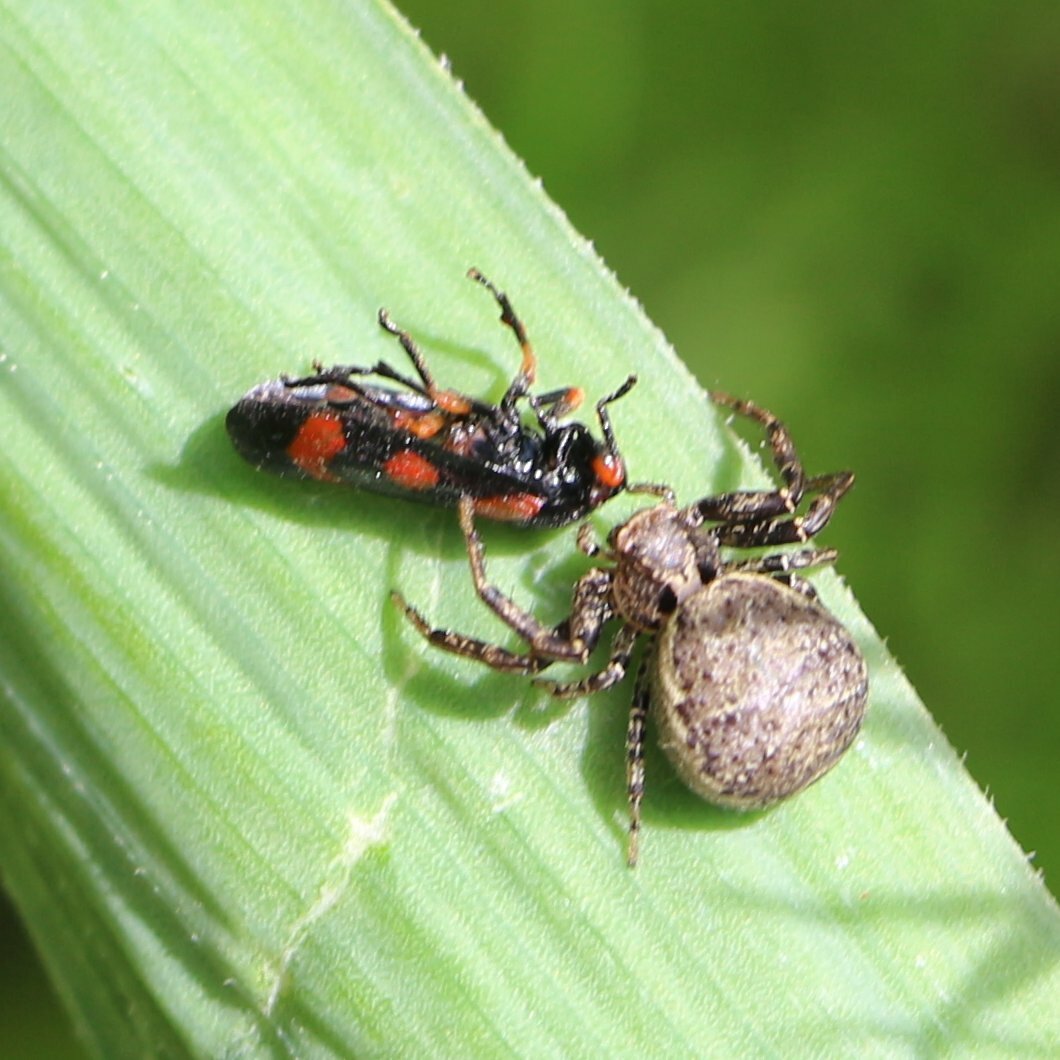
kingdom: Animalia
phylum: Arthropoda
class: Insecta
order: Hemiptera
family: Cercopidae
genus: Cercopis
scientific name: Cercopis intermedia
